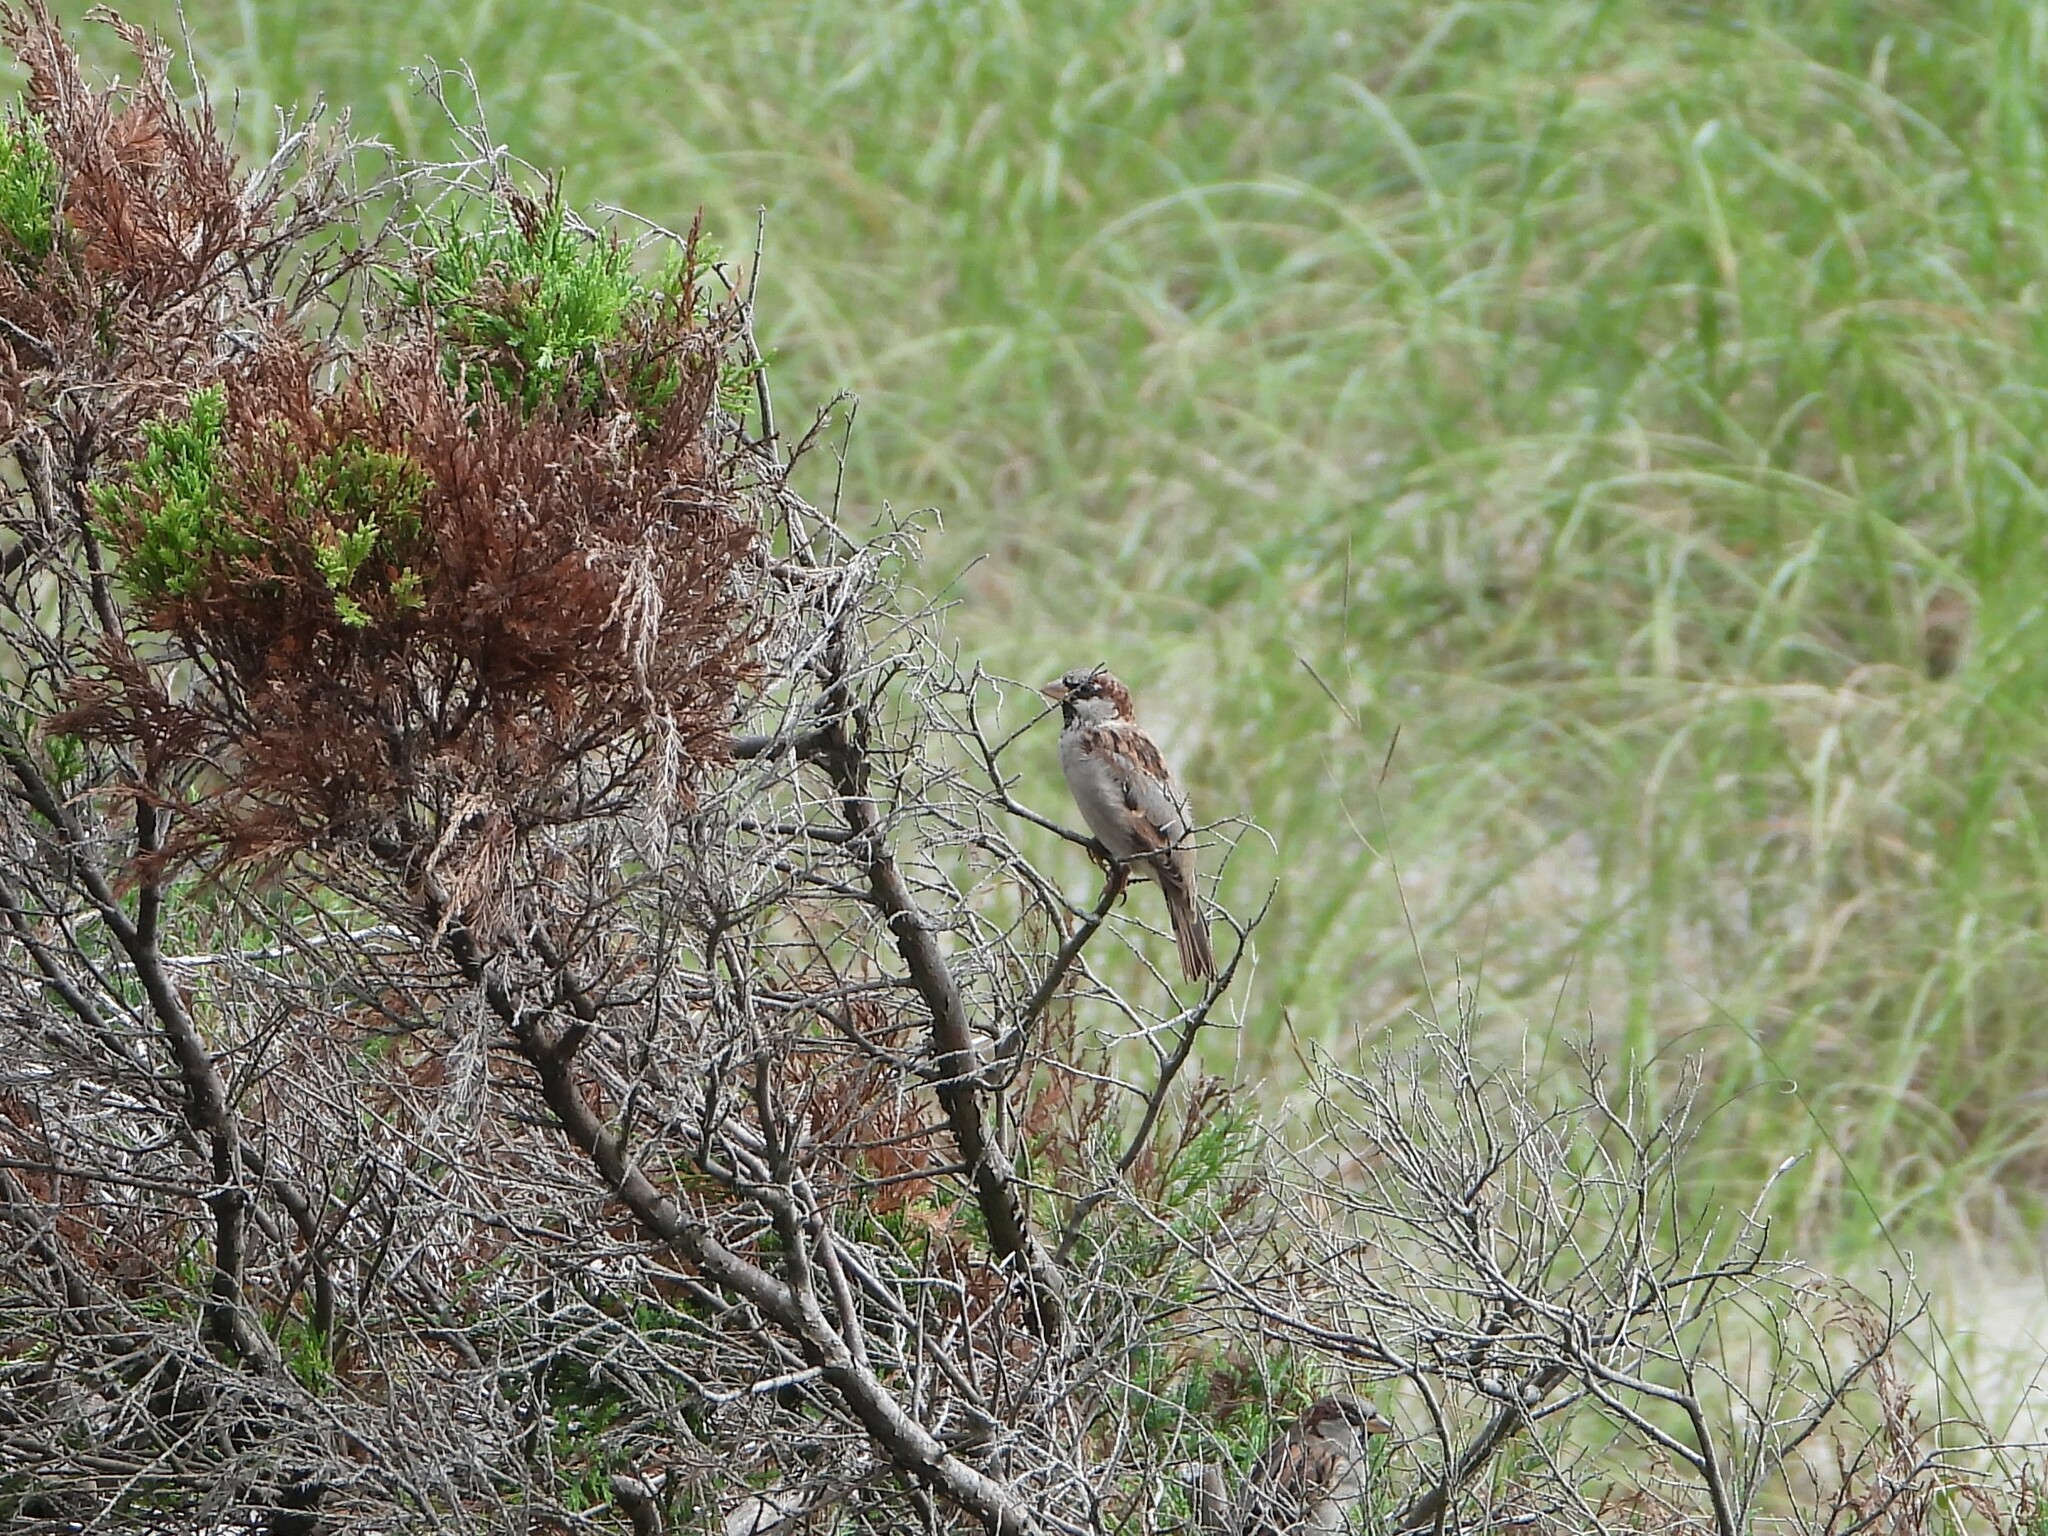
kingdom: Animalia
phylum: Chordata
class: Aves
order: Passeriformes
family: Passeridae
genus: Passer
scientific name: Passer domesticus
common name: House sparrow
